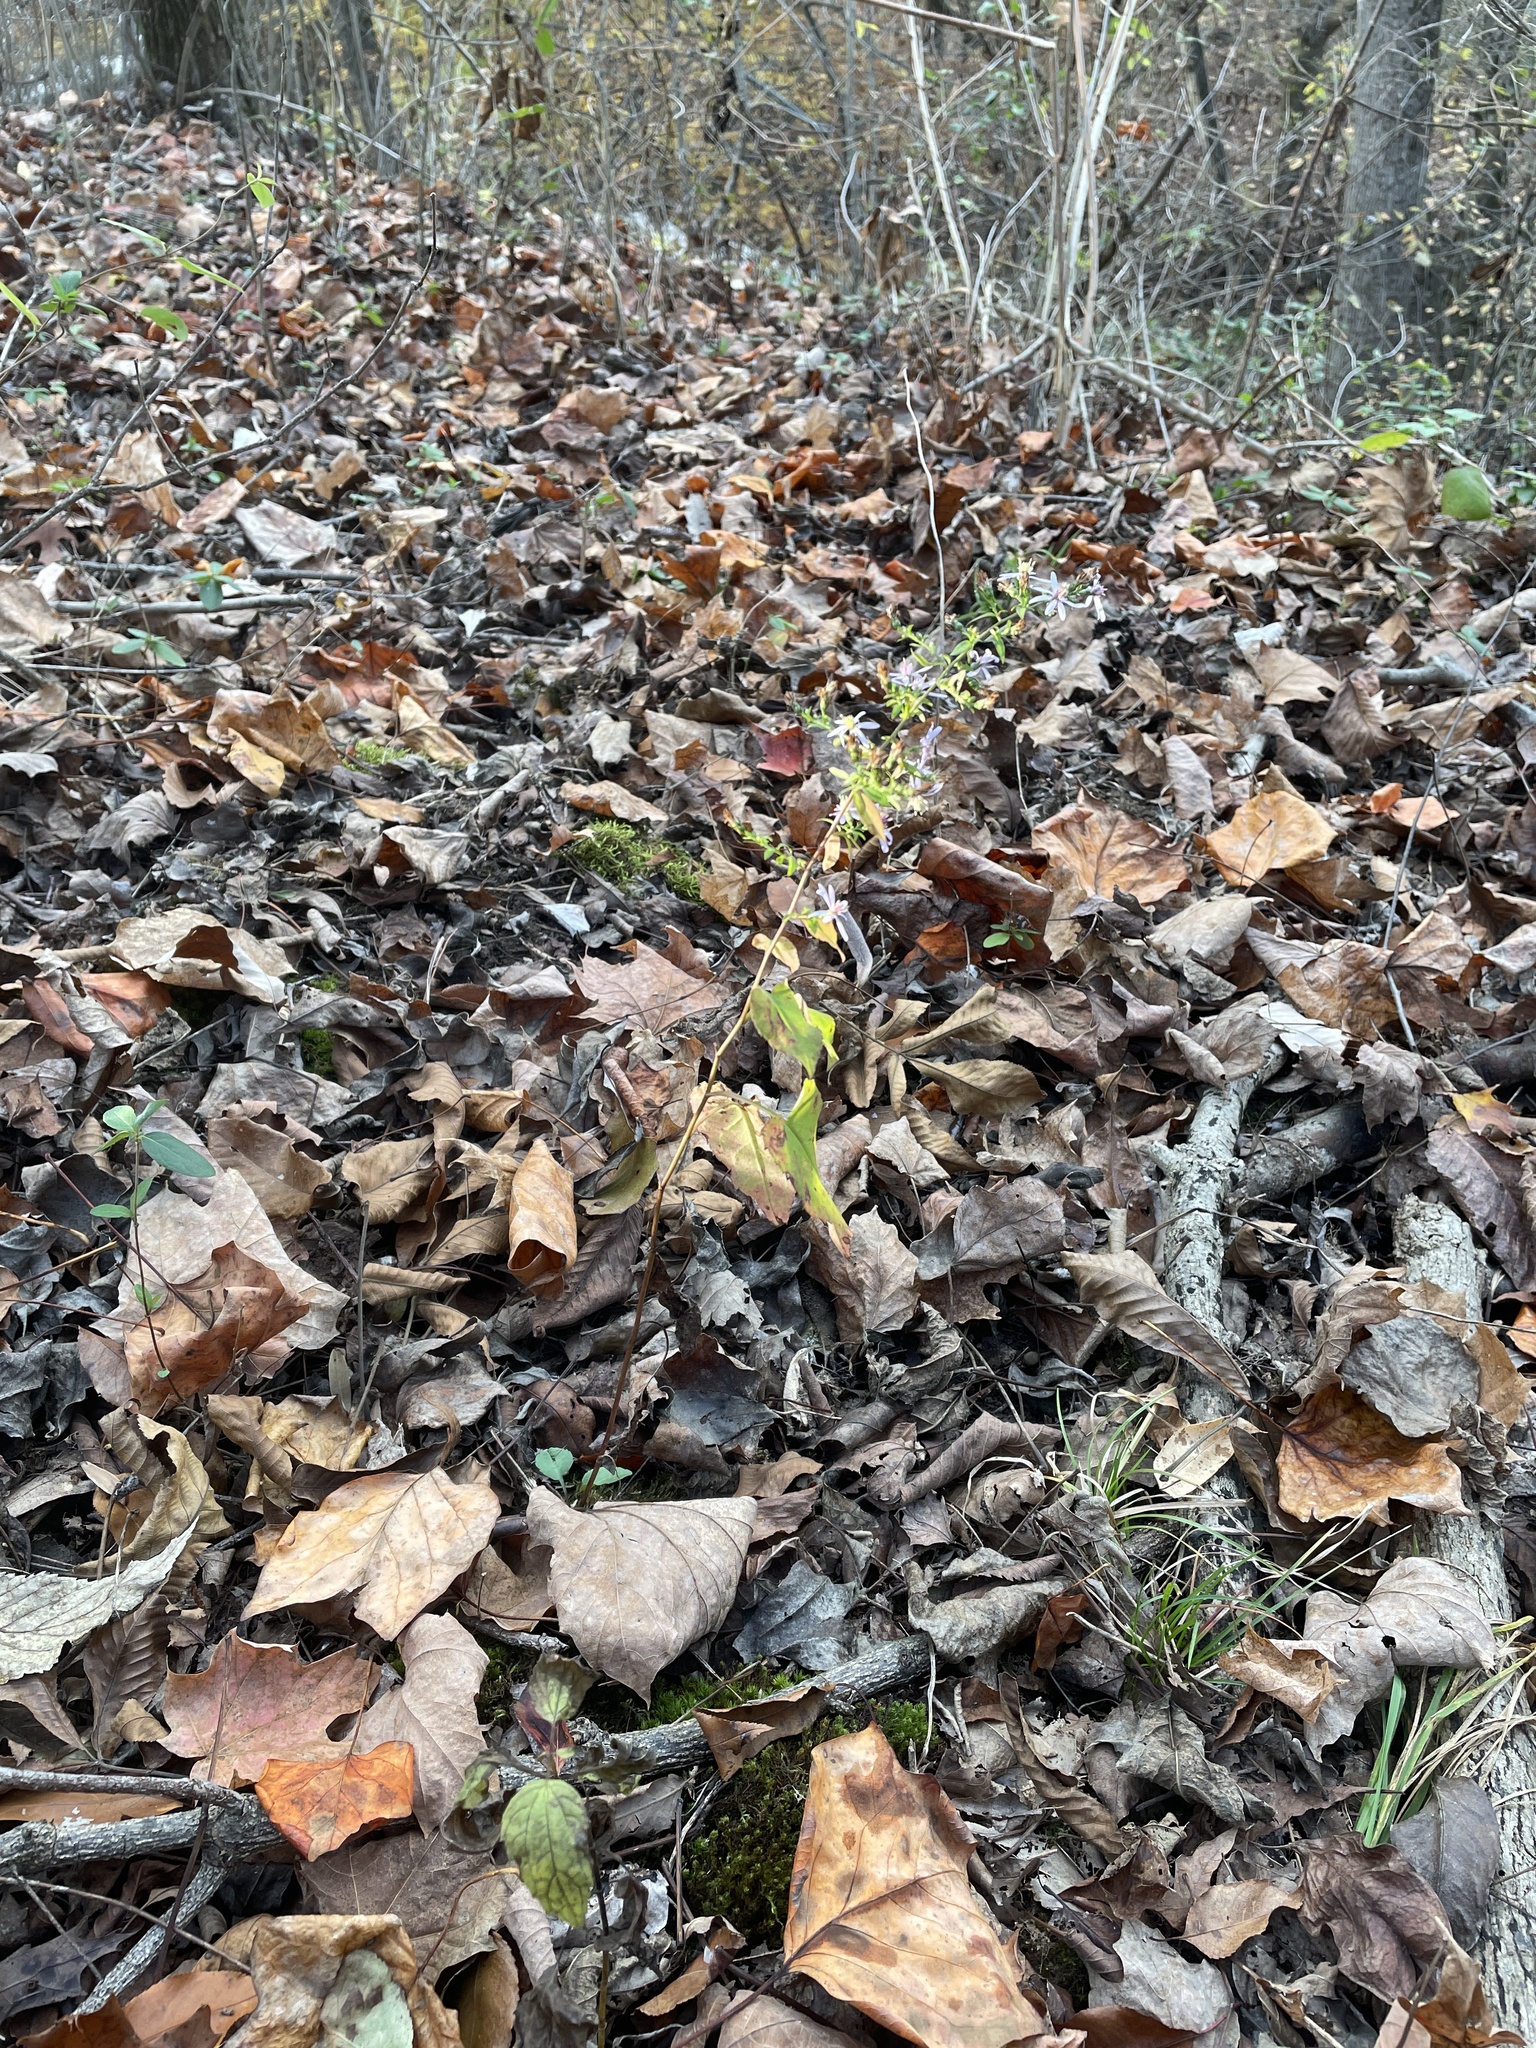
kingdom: Plantae
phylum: Tracheophyta
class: Magnoliopsida
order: Asterales
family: Asteraceae
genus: Symphyotrichum
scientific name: Symphyotrichum cordifolium
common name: Beeweed
